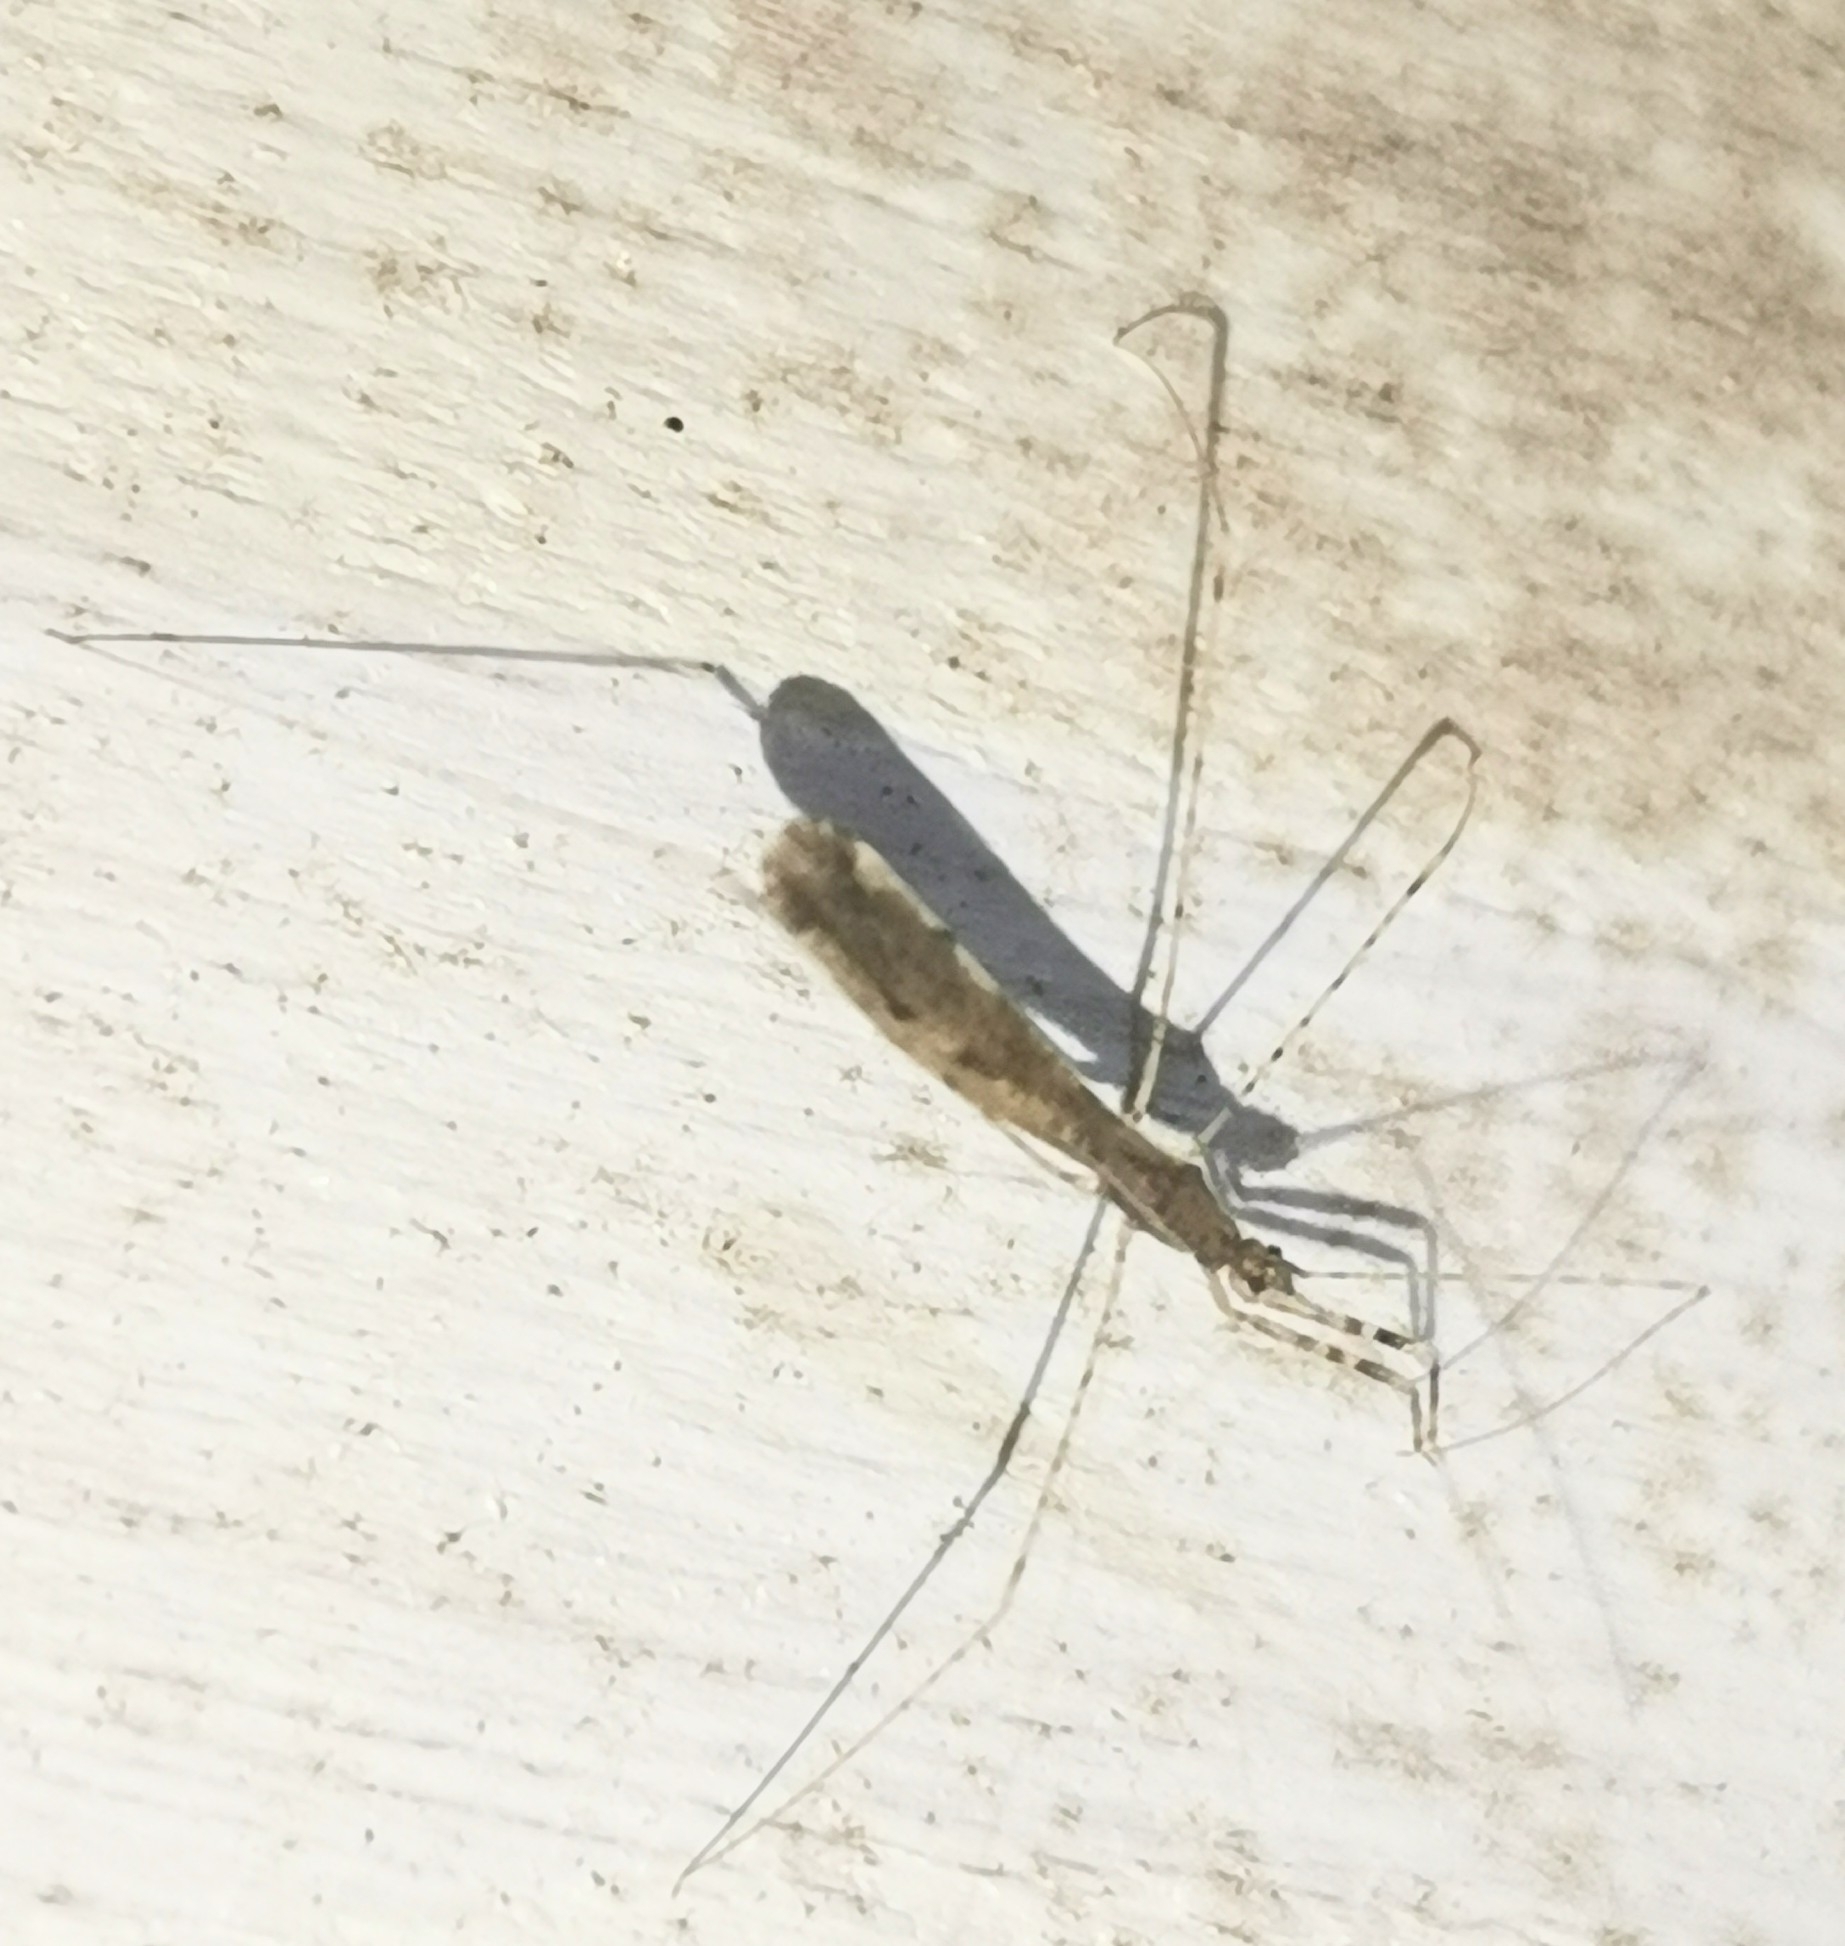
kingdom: Animalia
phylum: Arthropoda
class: Insecta
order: Hemiptera
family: Reduviidae
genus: Empicoris
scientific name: Empicoris vagabundus
